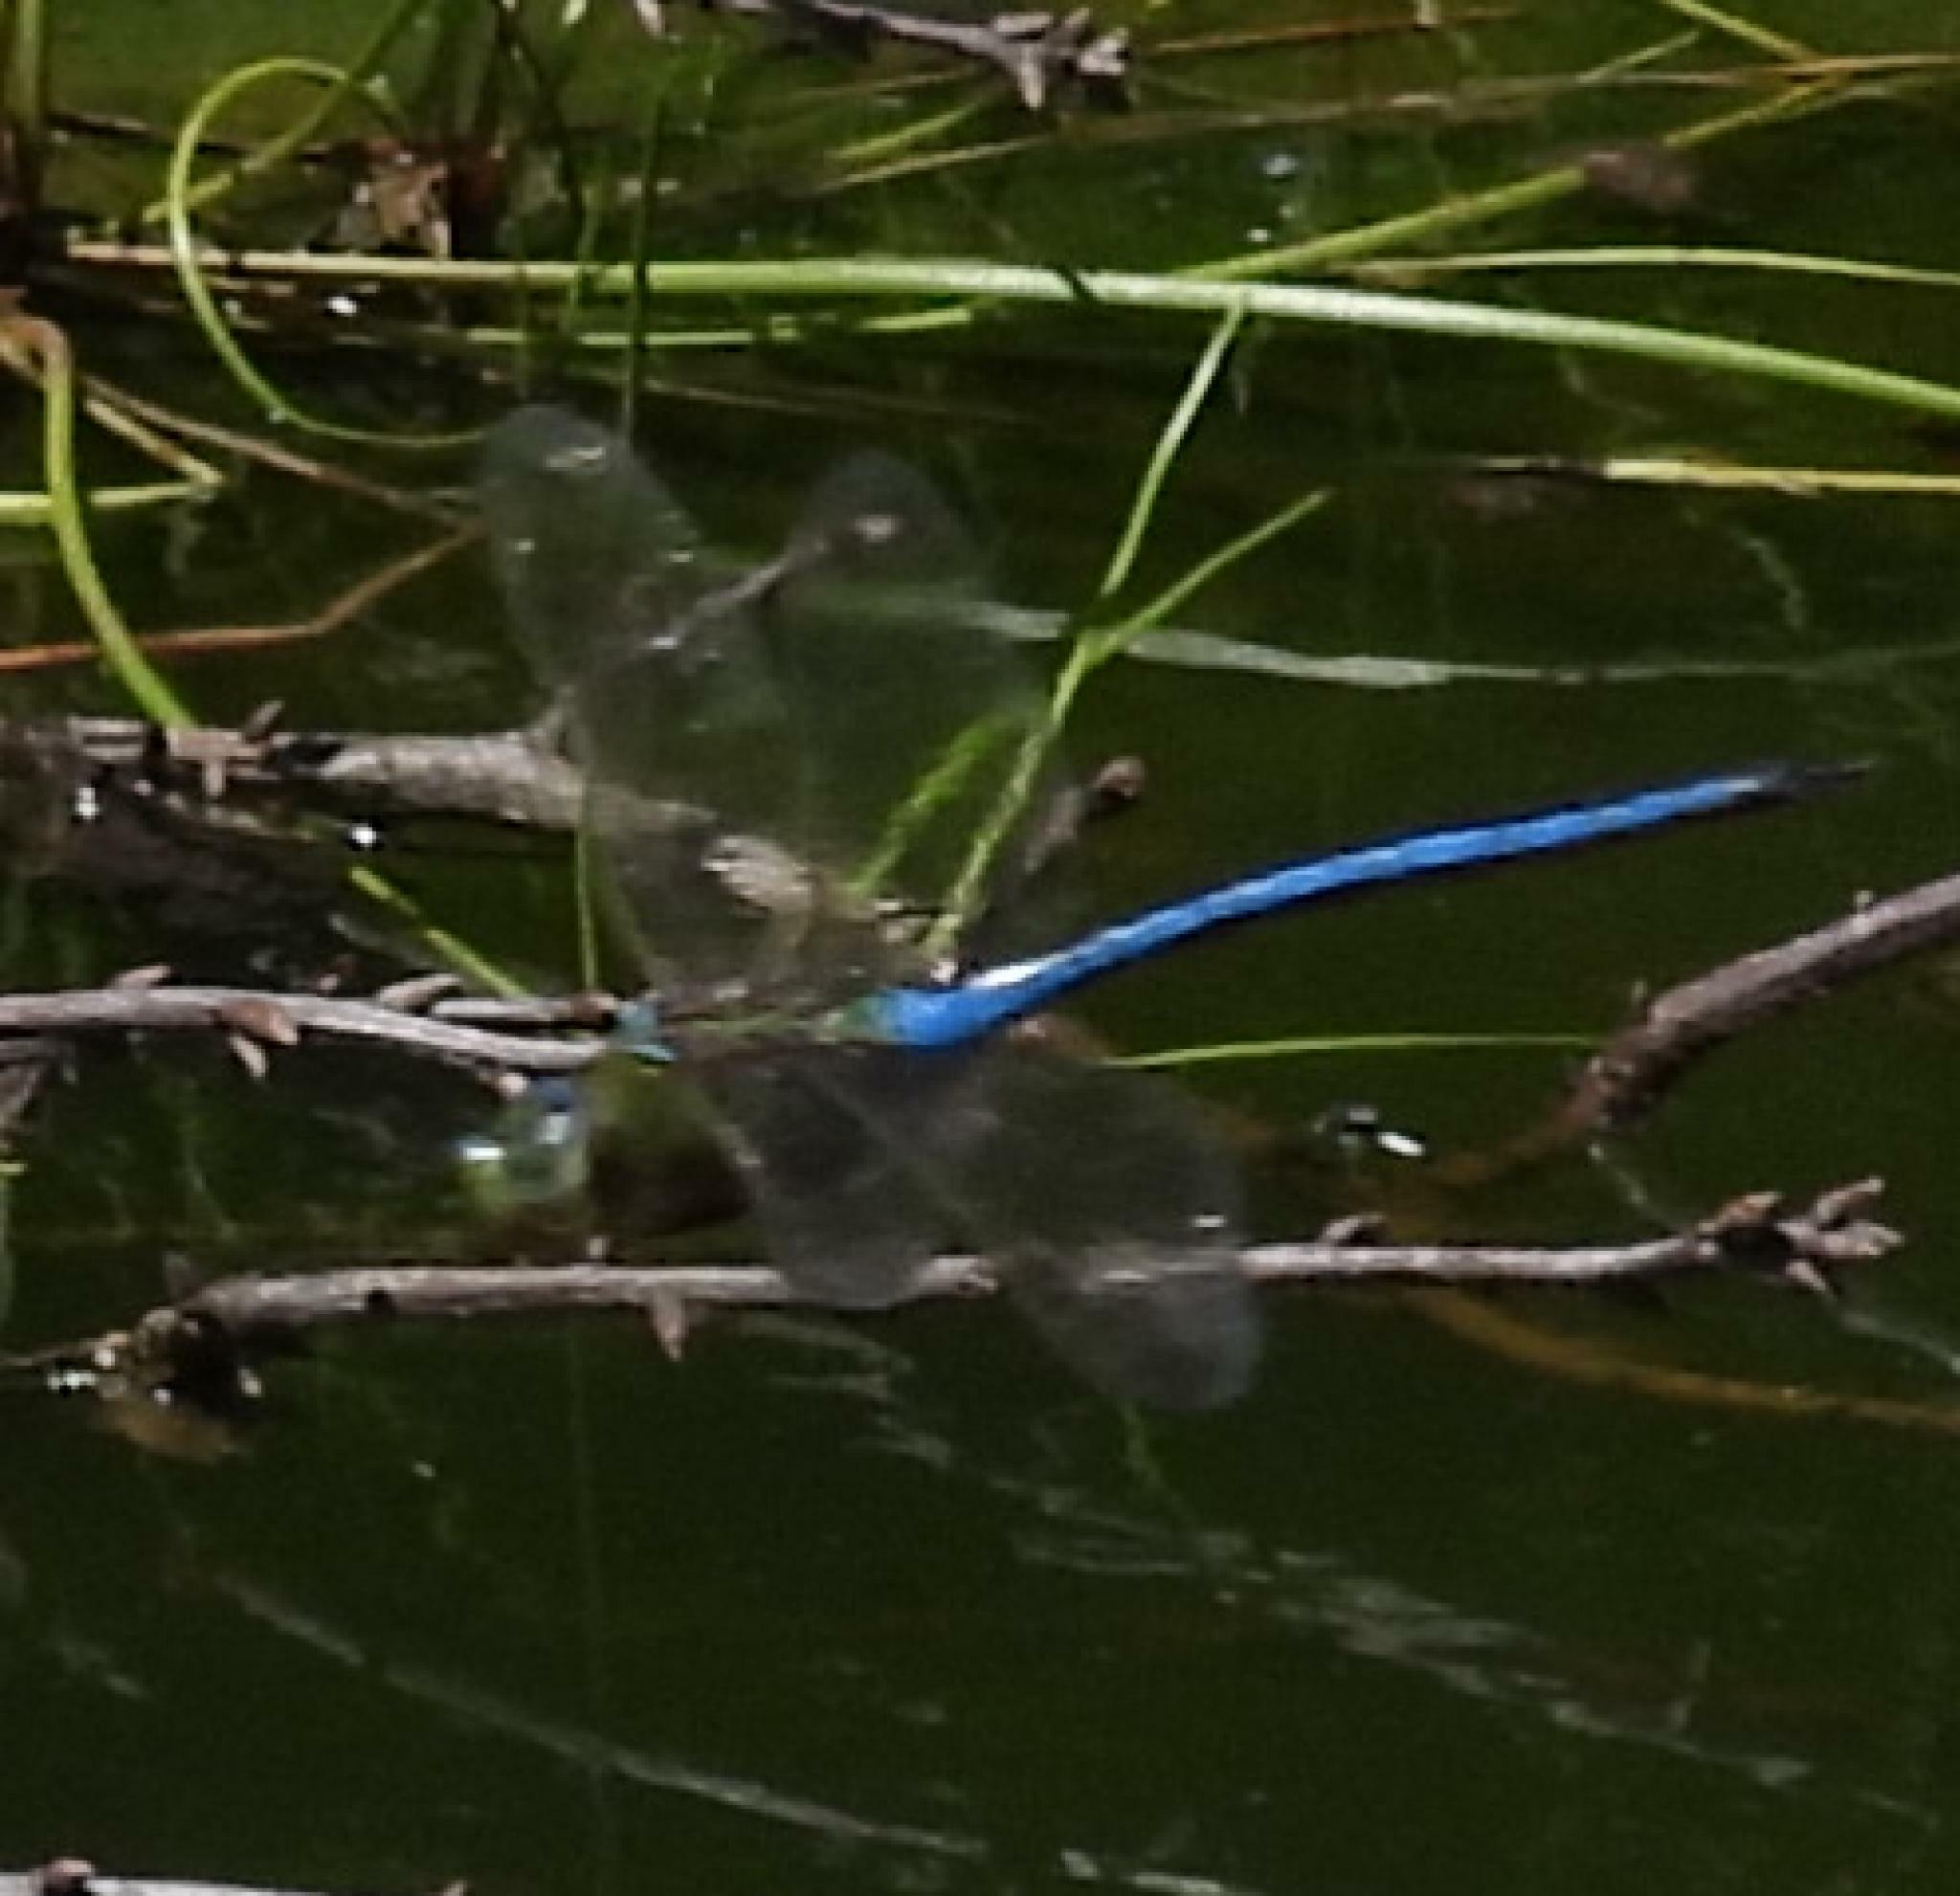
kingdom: Animalia
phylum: Arthropoda
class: Insecta
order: Odonata
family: Aeshnidae
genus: Anax
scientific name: Anax imperator
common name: Emperor dragonfly
